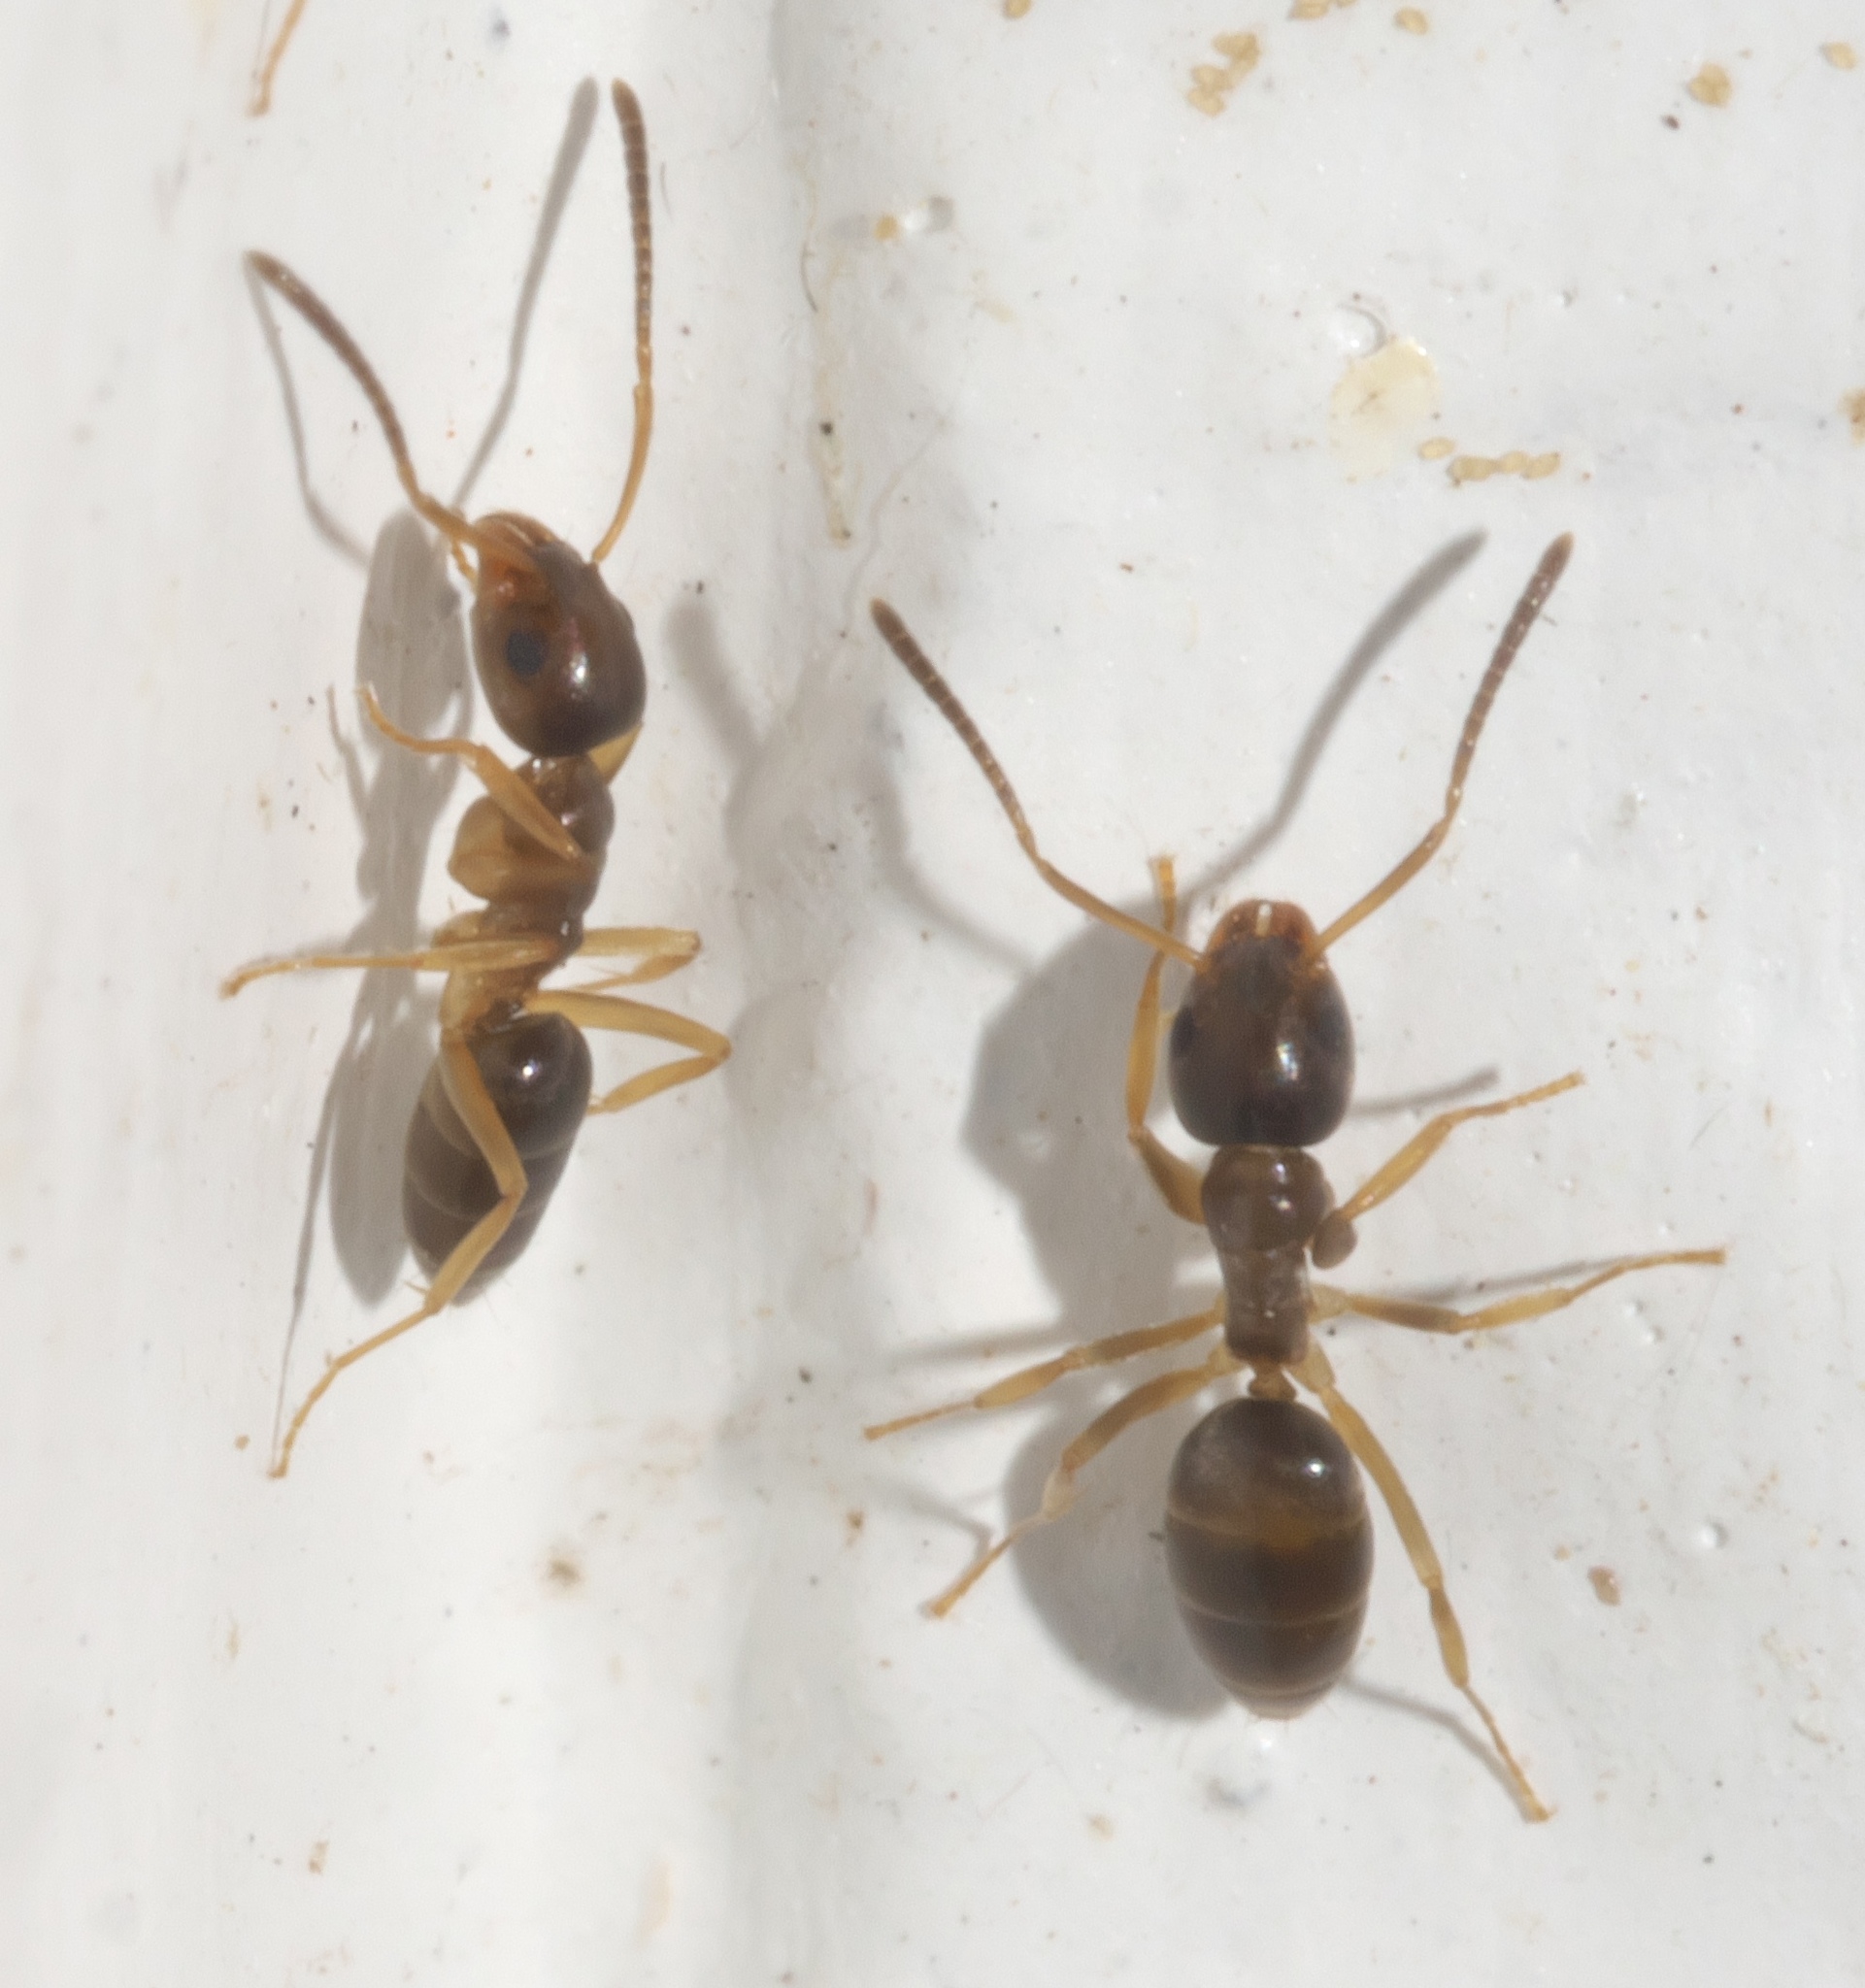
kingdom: Animalia
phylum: Arthropoda
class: Insecta
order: Hymenoptera
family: Formicidae
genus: Tapinoma
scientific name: Tapinoma sessile
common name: Odorous house ant
